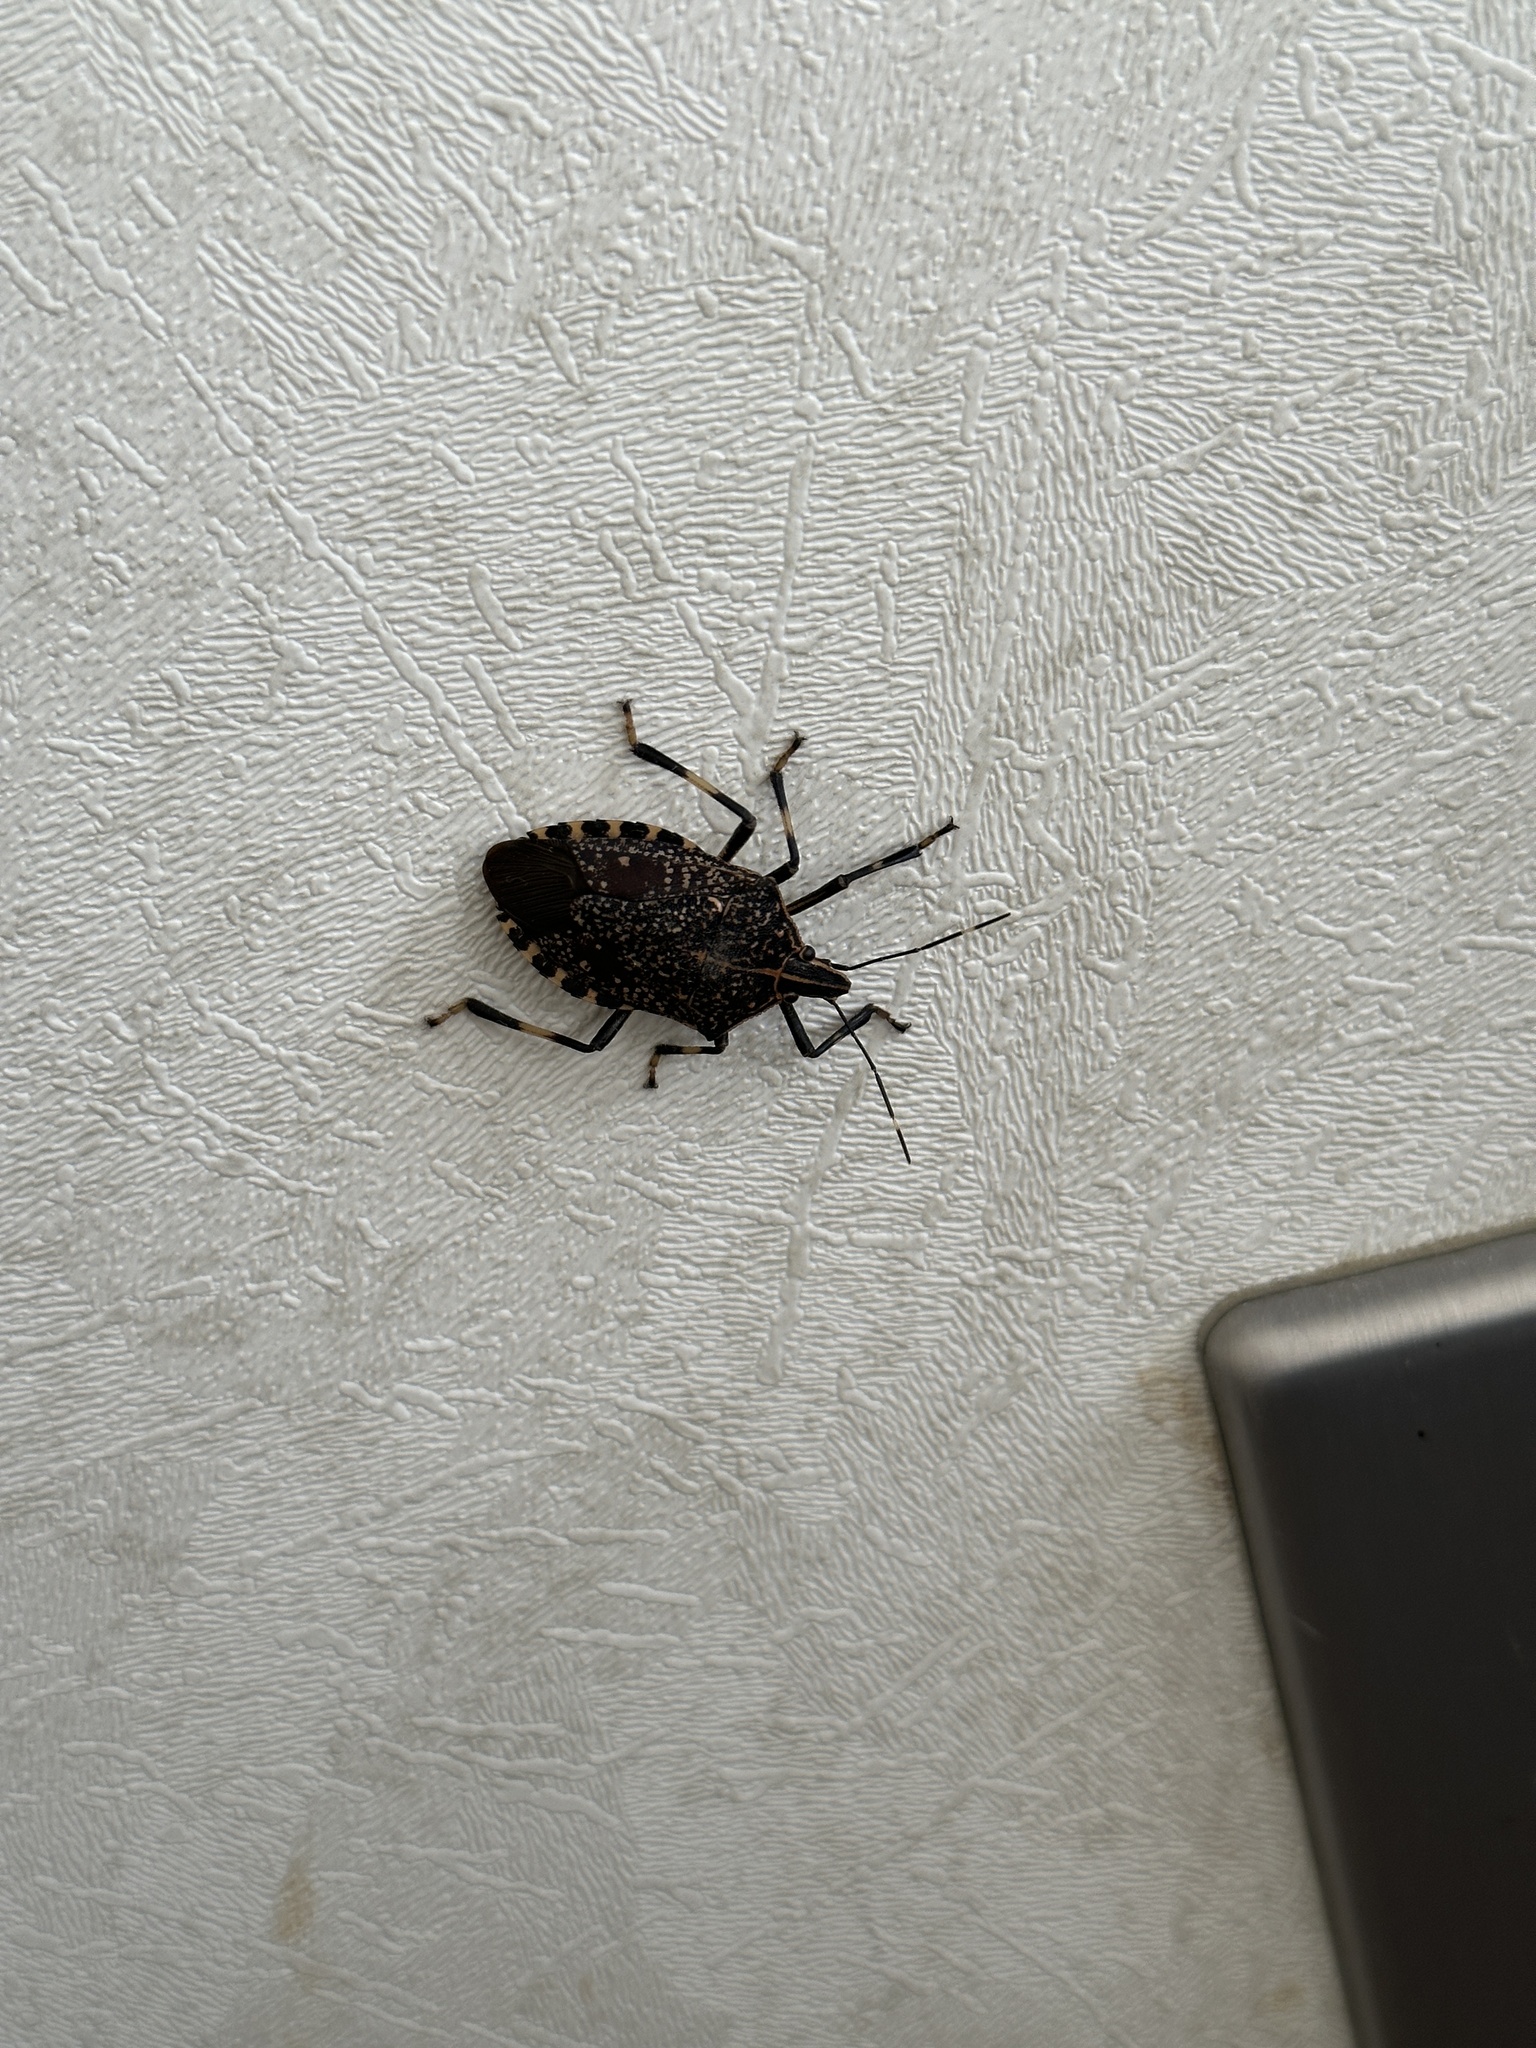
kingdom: Animalia
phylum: Arthropoda
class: Insecta
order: Hemiptera
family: Pentatomidae
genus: Erthesina
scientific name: Erthesina fullo
